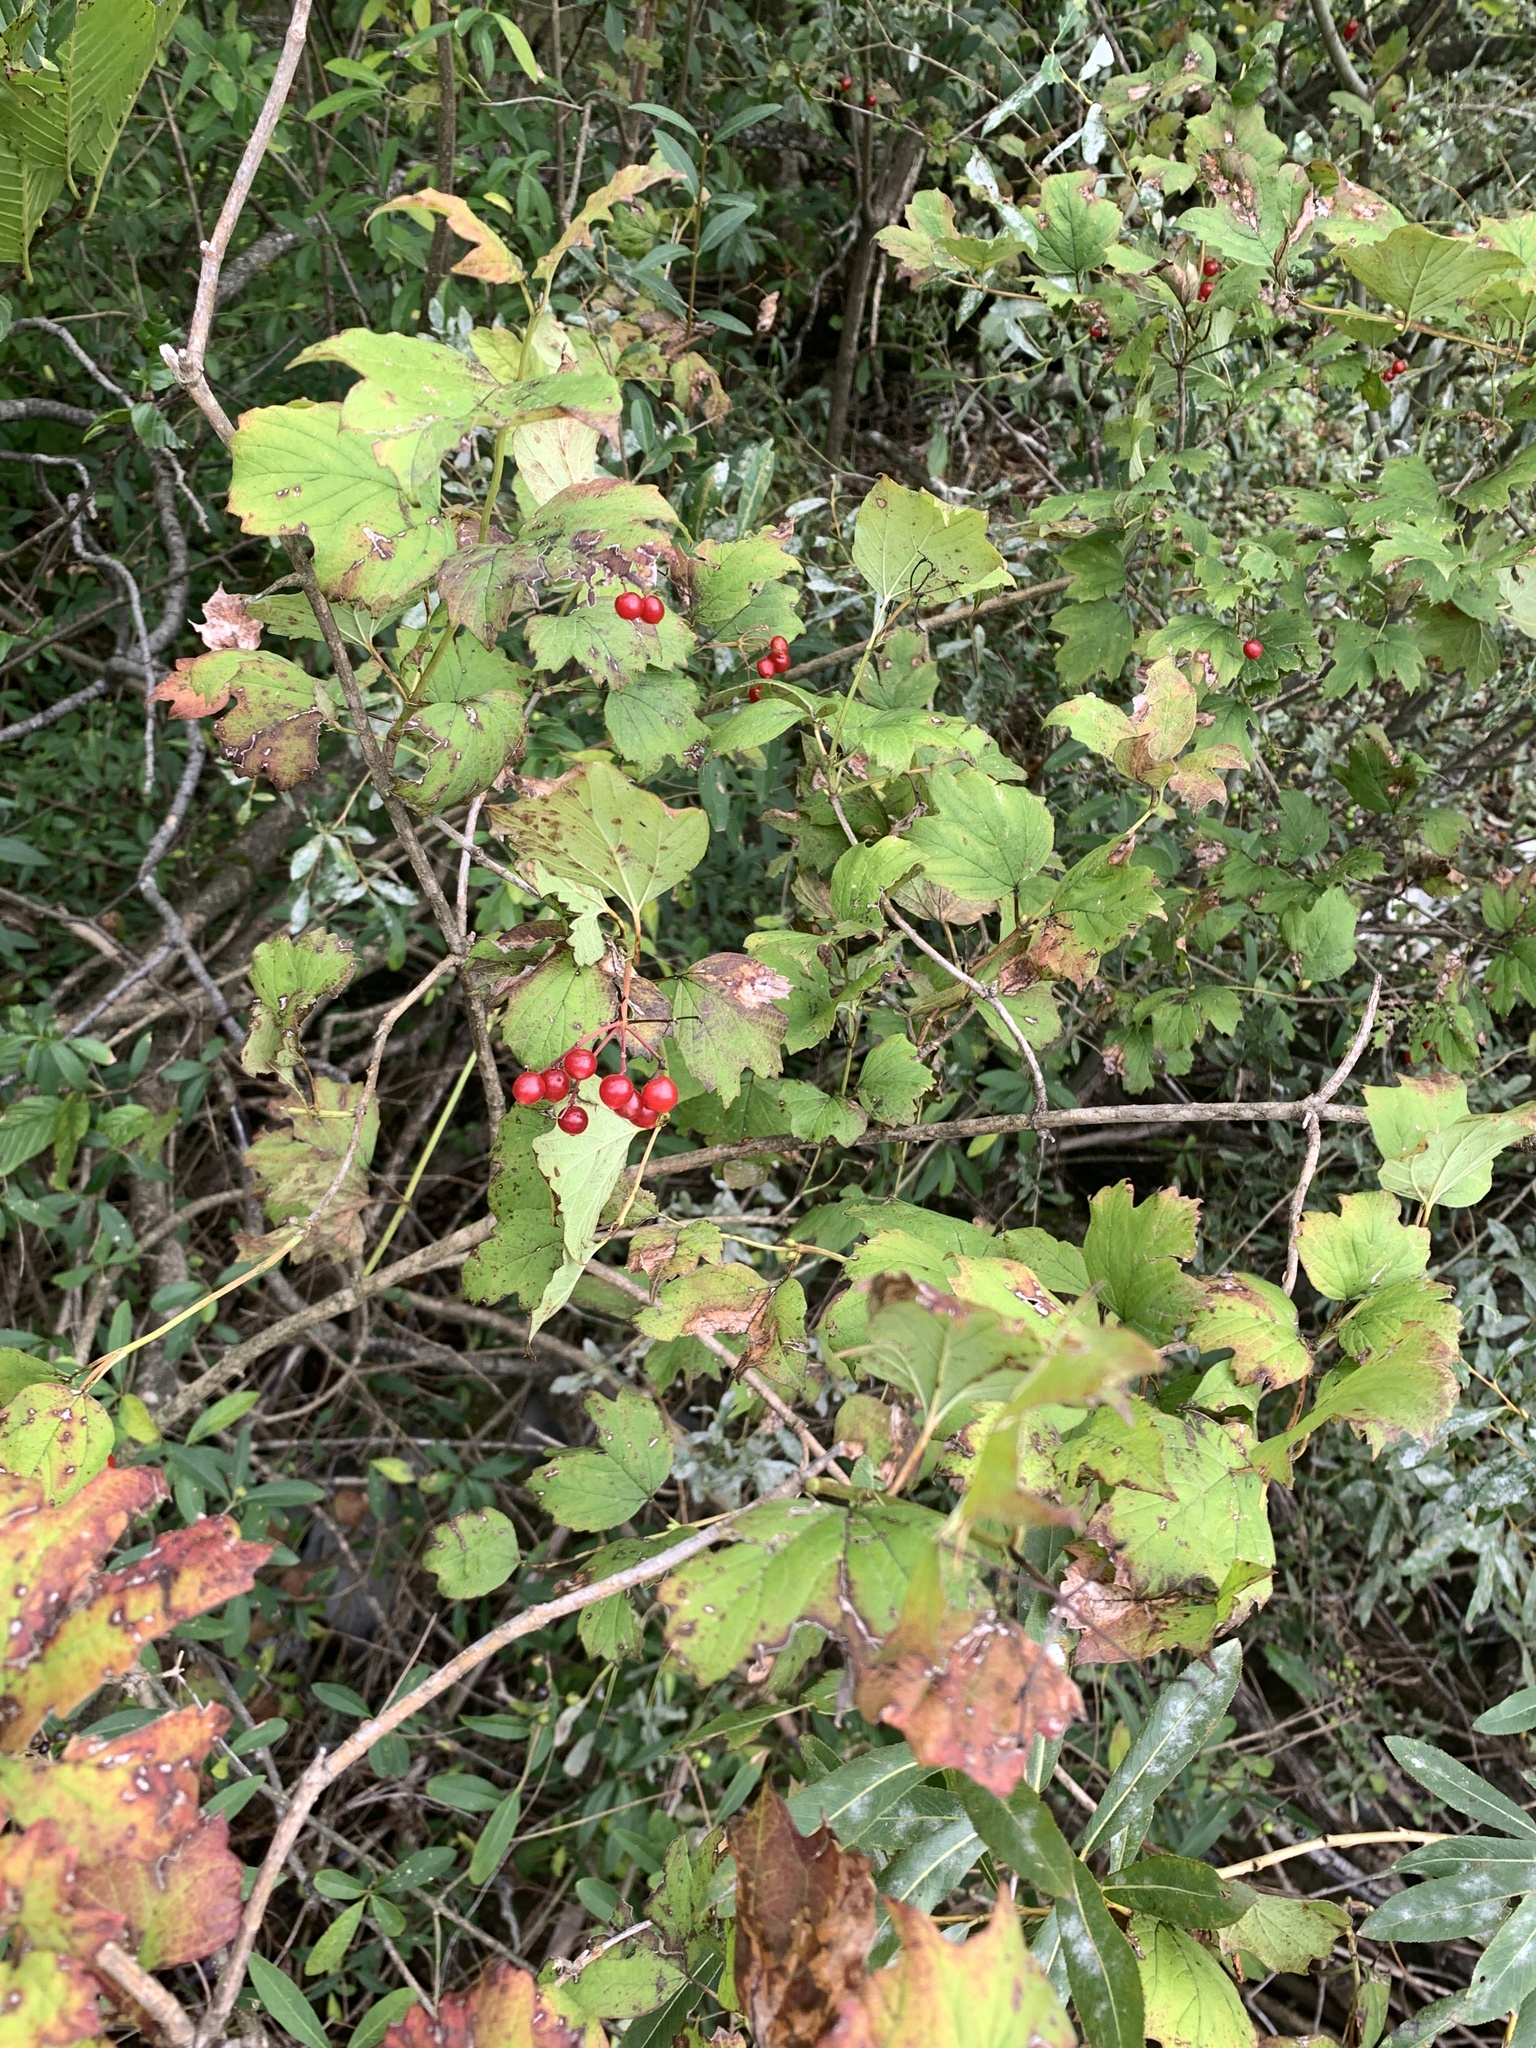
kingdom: Plantae
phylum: Tracheophyta
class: Magnoliopsida
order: Dipsacales
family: Viburnaceae
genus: Viburnum
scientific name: Viburnum opulus
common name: Guelder-rose
